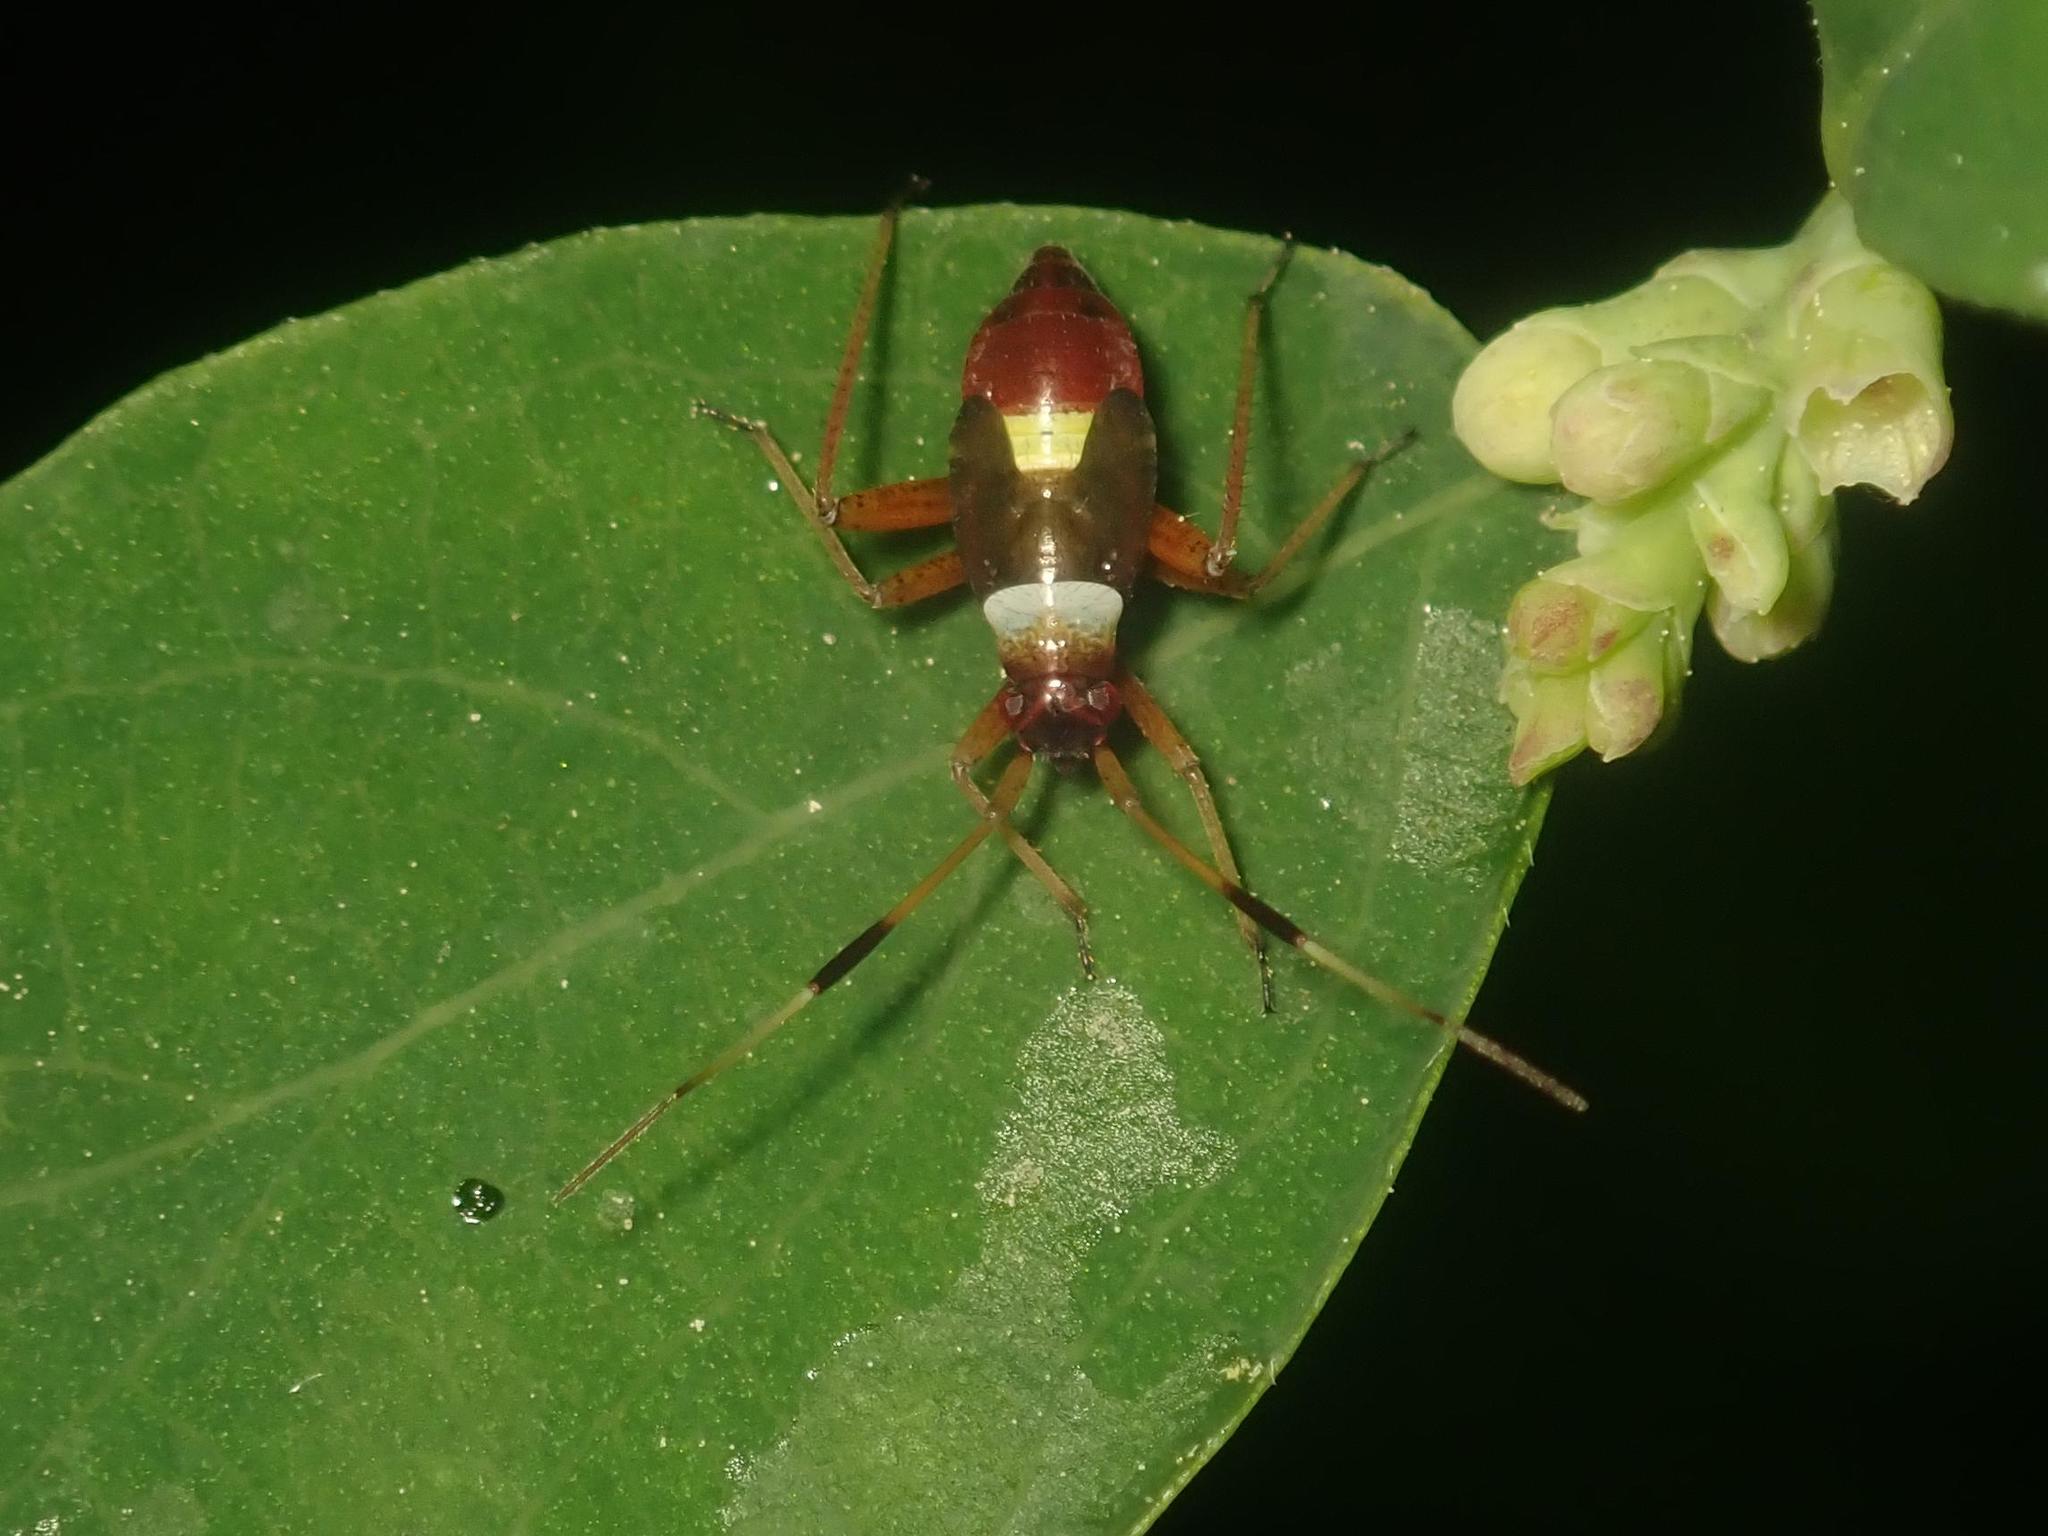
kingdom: Animalia
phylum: Arthropoda
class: Insecta
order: Hemiptera
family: Miridae
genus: Closterotomus
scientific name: Closterotomus biclavatus
